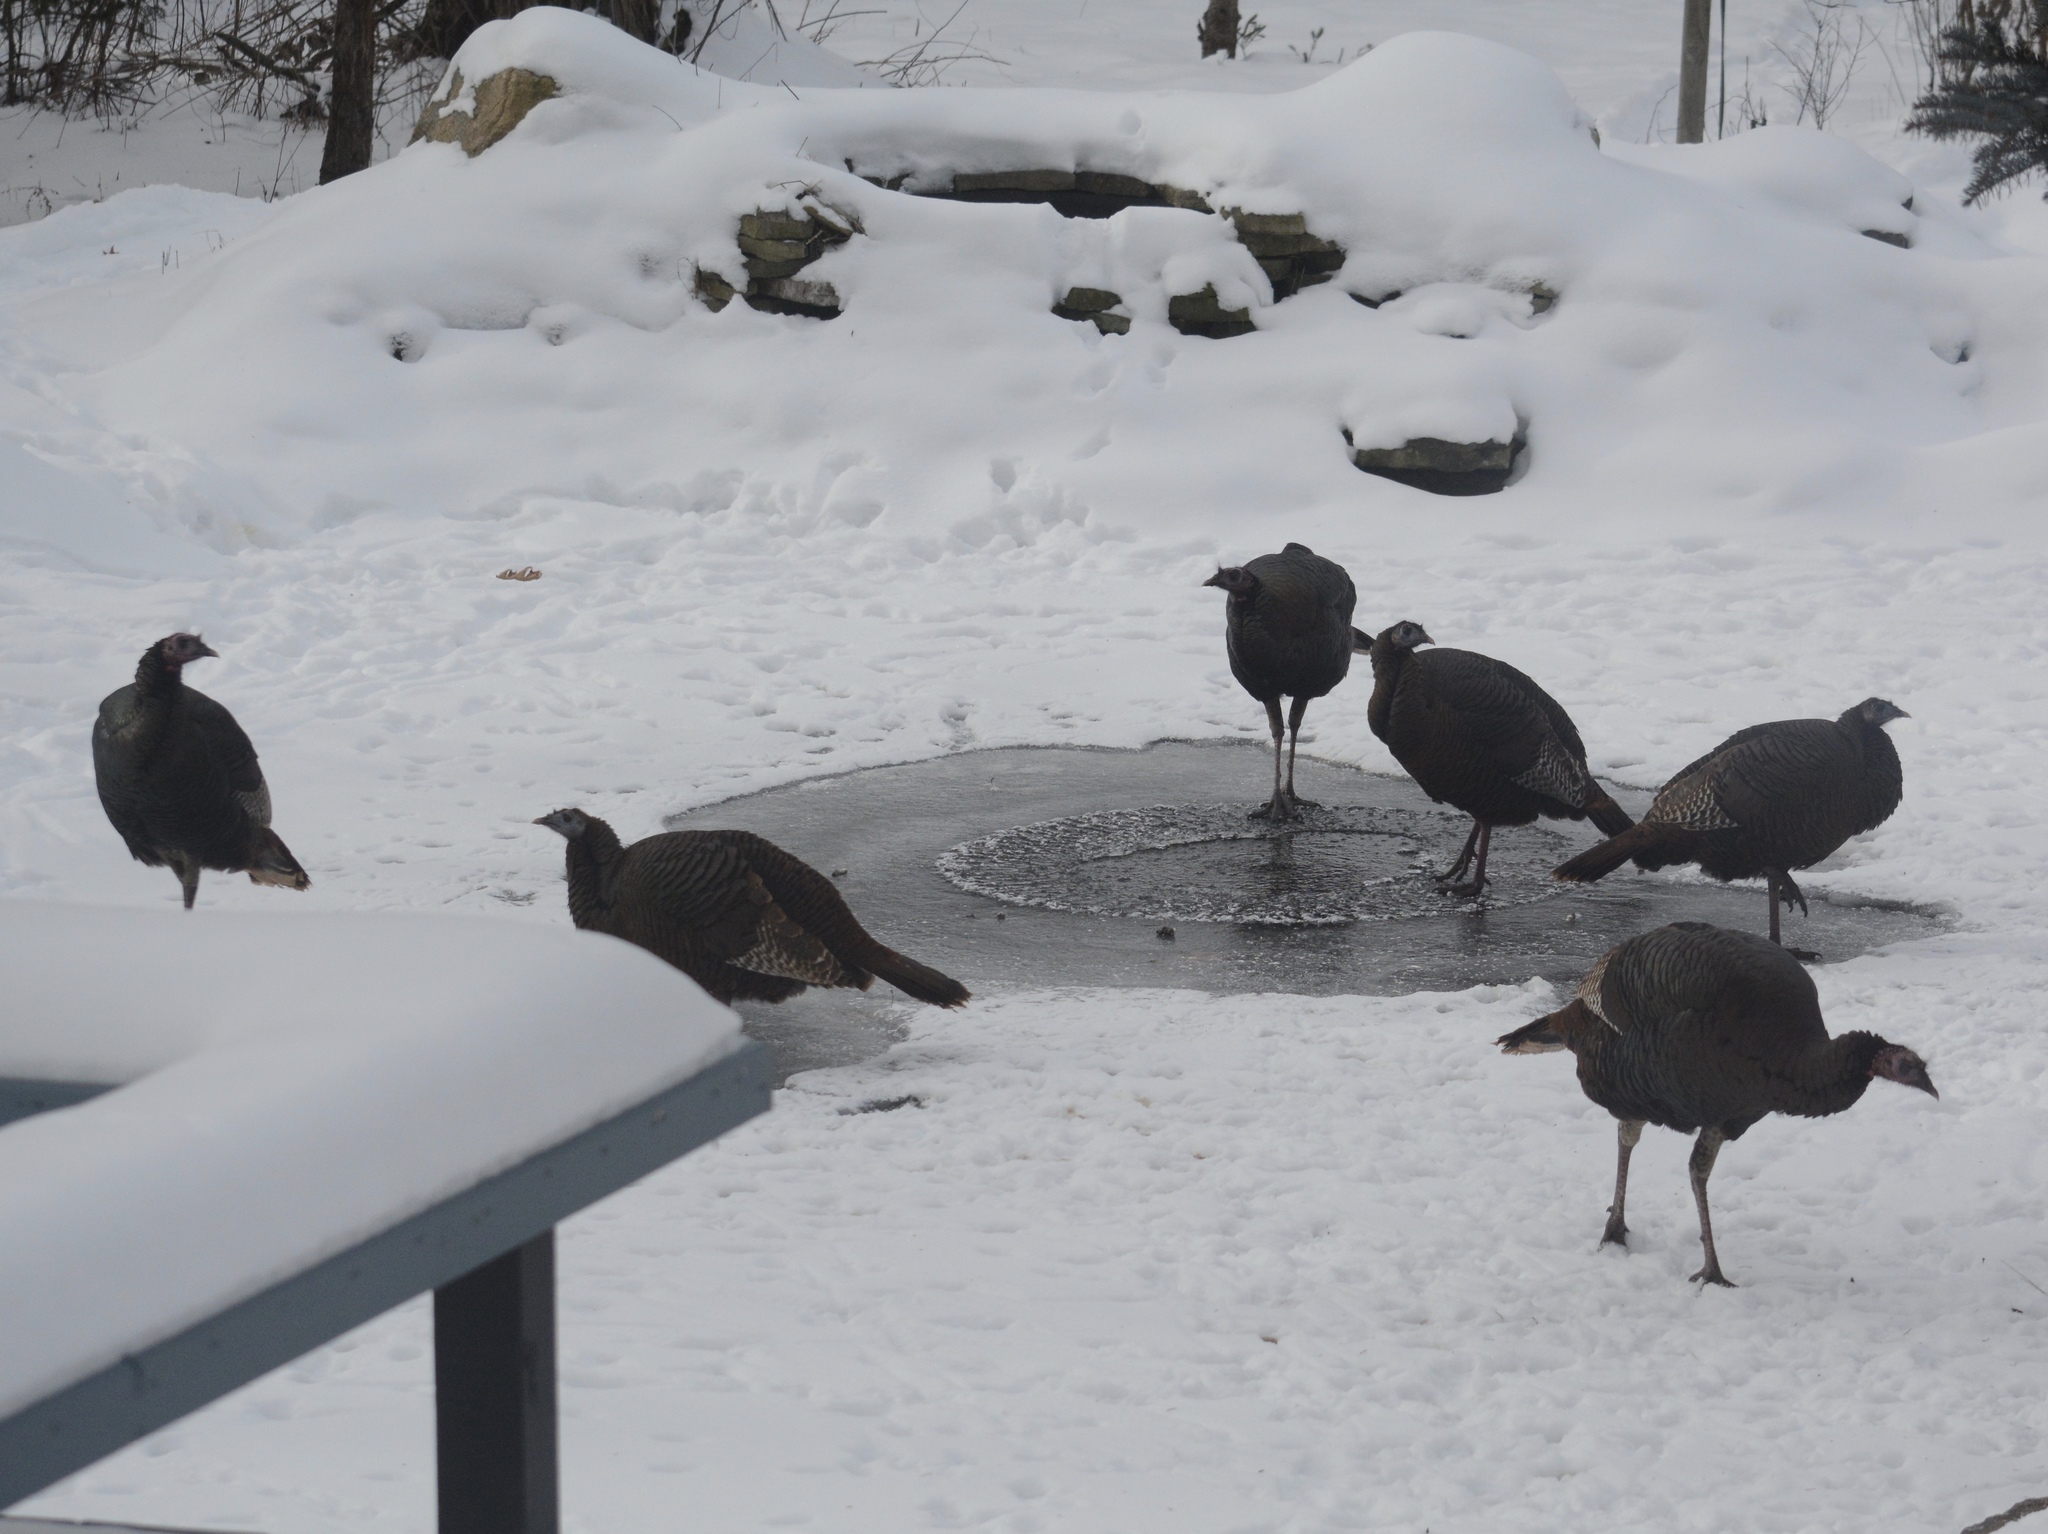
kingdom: Animalia
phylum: Chordata
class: Aves
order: Galliformes
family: Phasianidae
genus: Meleagris
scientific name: Meleagris gallopavo
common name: Wild turkey
